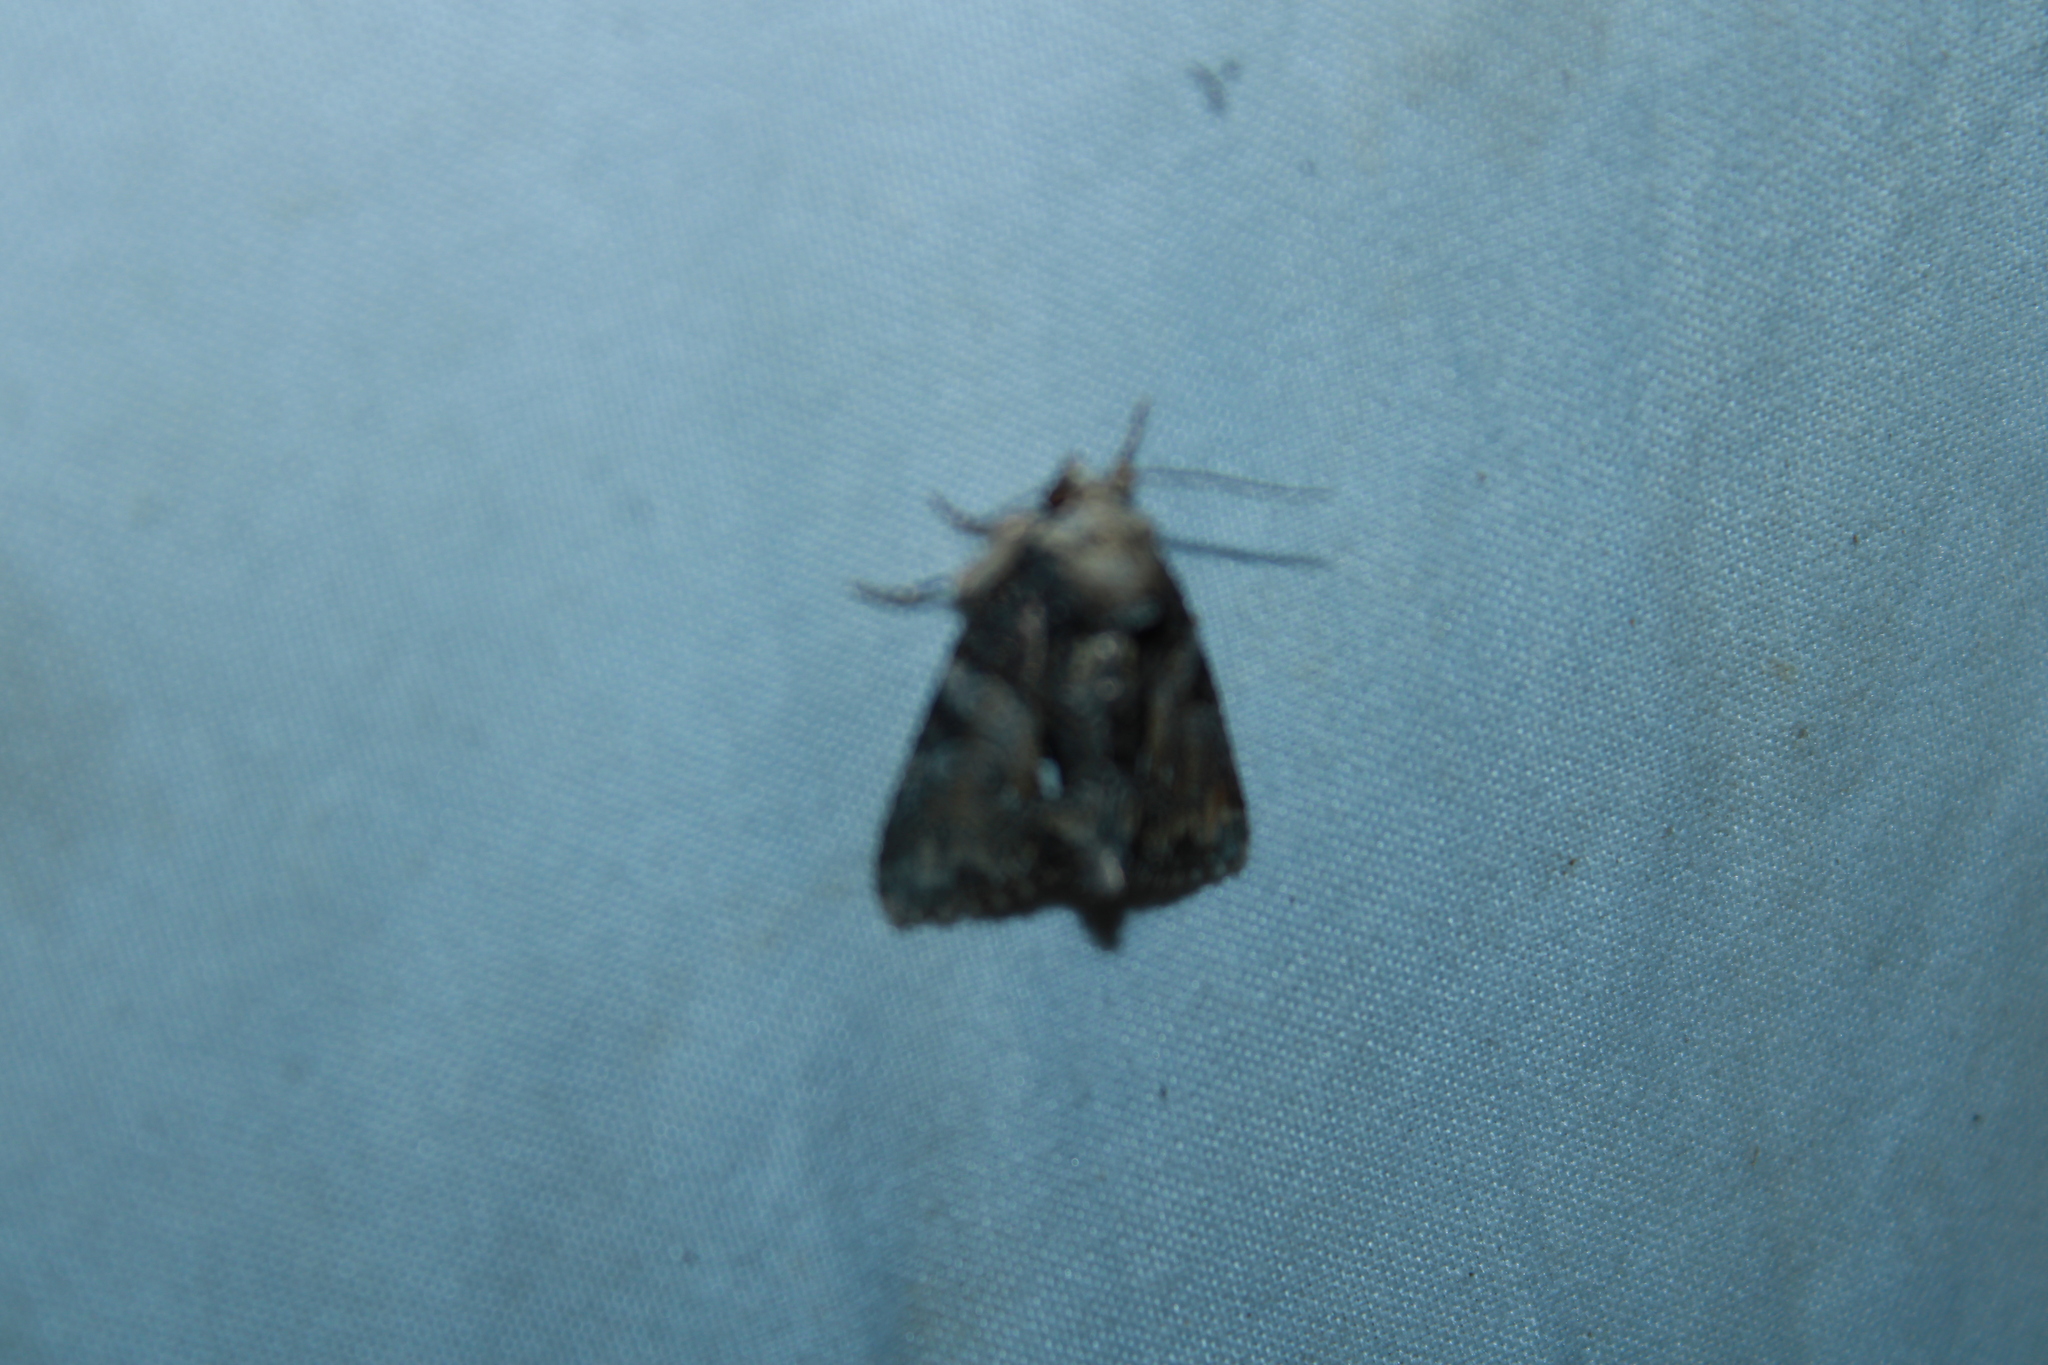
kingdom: Animalia
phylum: Arthropoda
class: Insecta
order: Lepidoptera
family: Noctuidae
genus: Chytonix
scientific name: Chytonix palliatricula
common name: Cloaked marvel
